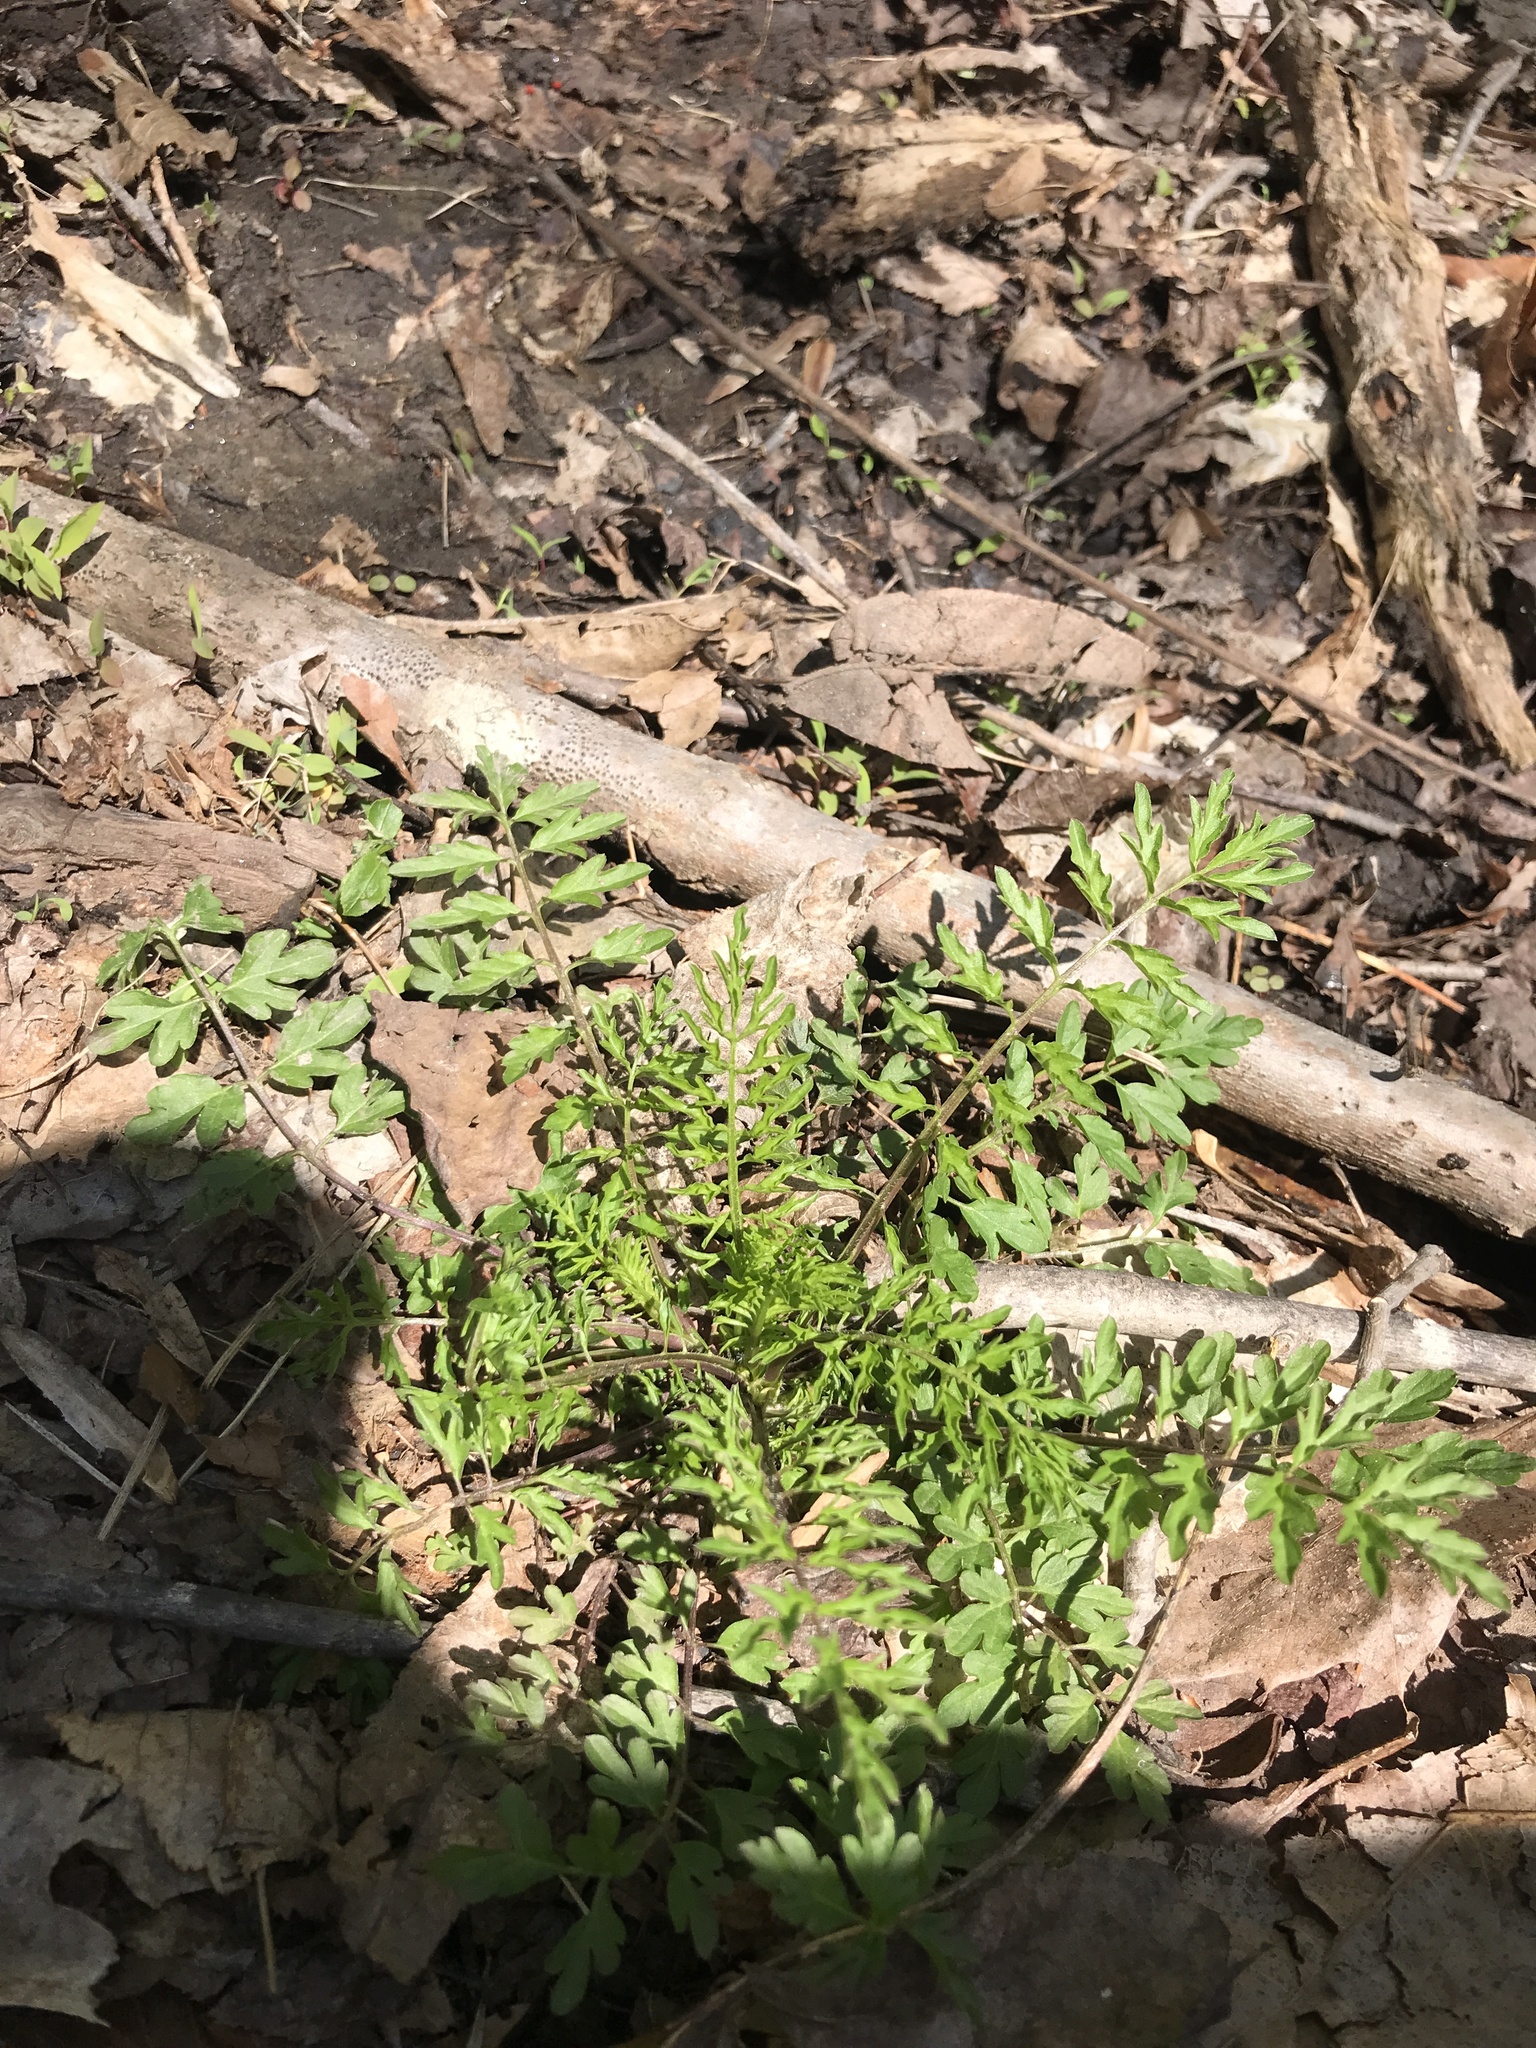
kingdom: Plantae
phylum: Tracheophyta
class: Magnoliopsida
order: Brassicales
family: Brassicaceae
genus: Cardamine
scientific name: Cardamine impatiens
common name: Narrow-leaved bitter-cress
